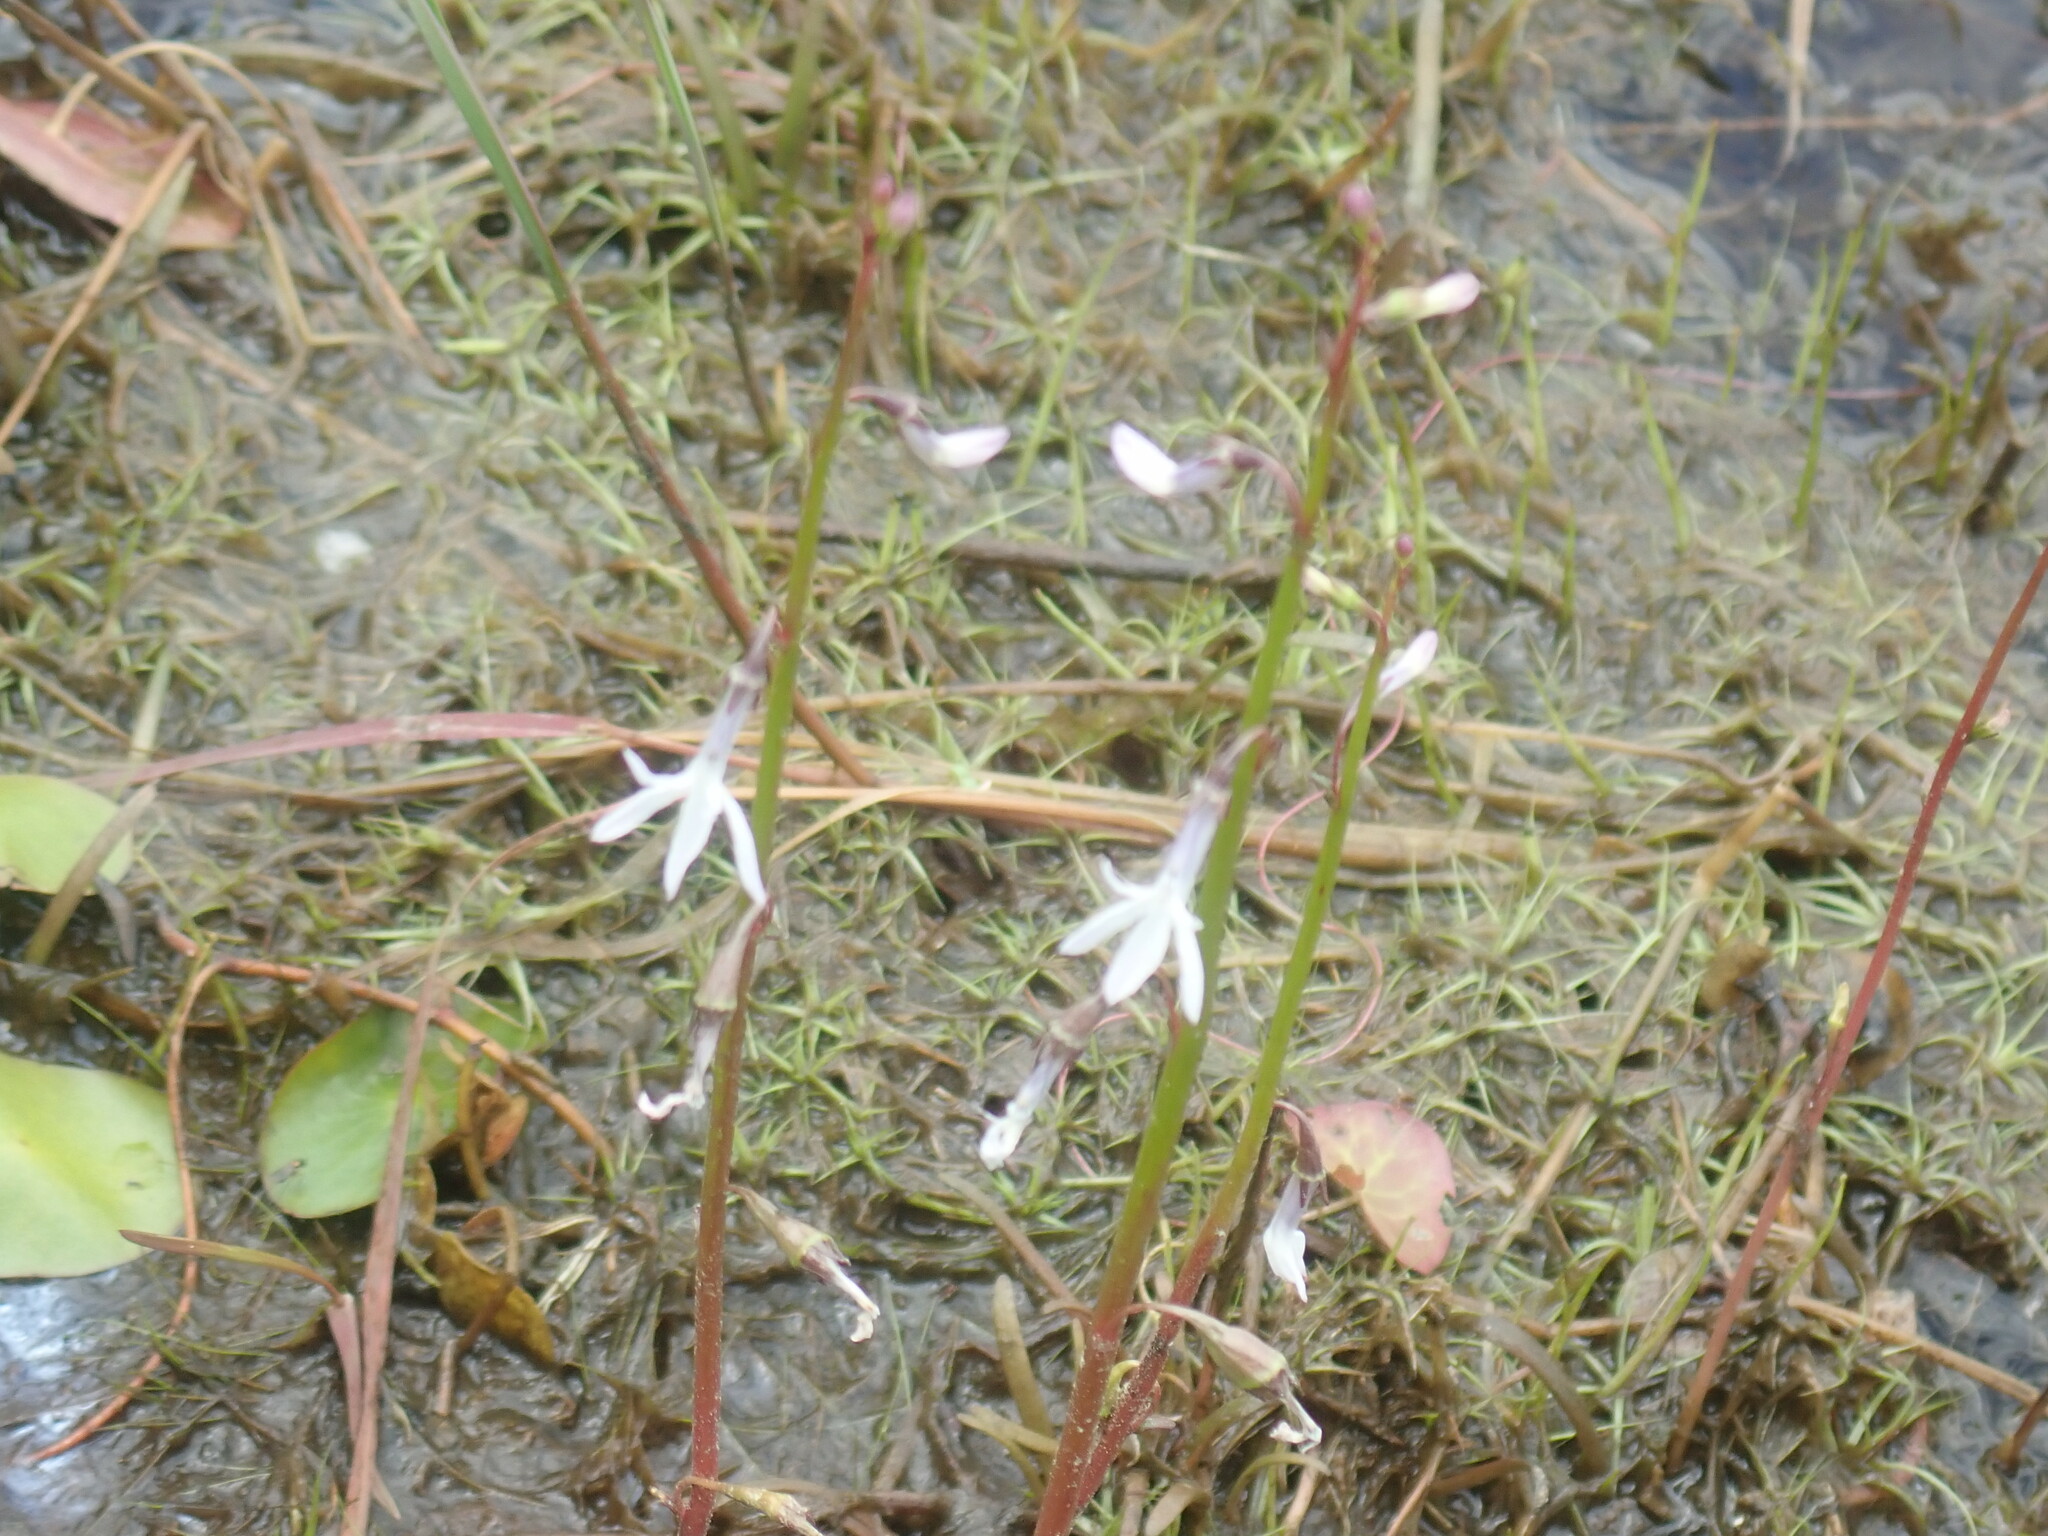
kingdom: Plantae
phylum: Tracheophyta
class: Magnoliopsida
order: Asterales
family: Campanulaceae
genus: Lobelia
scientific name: Lobelia dortmanna
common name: Water lobelia
